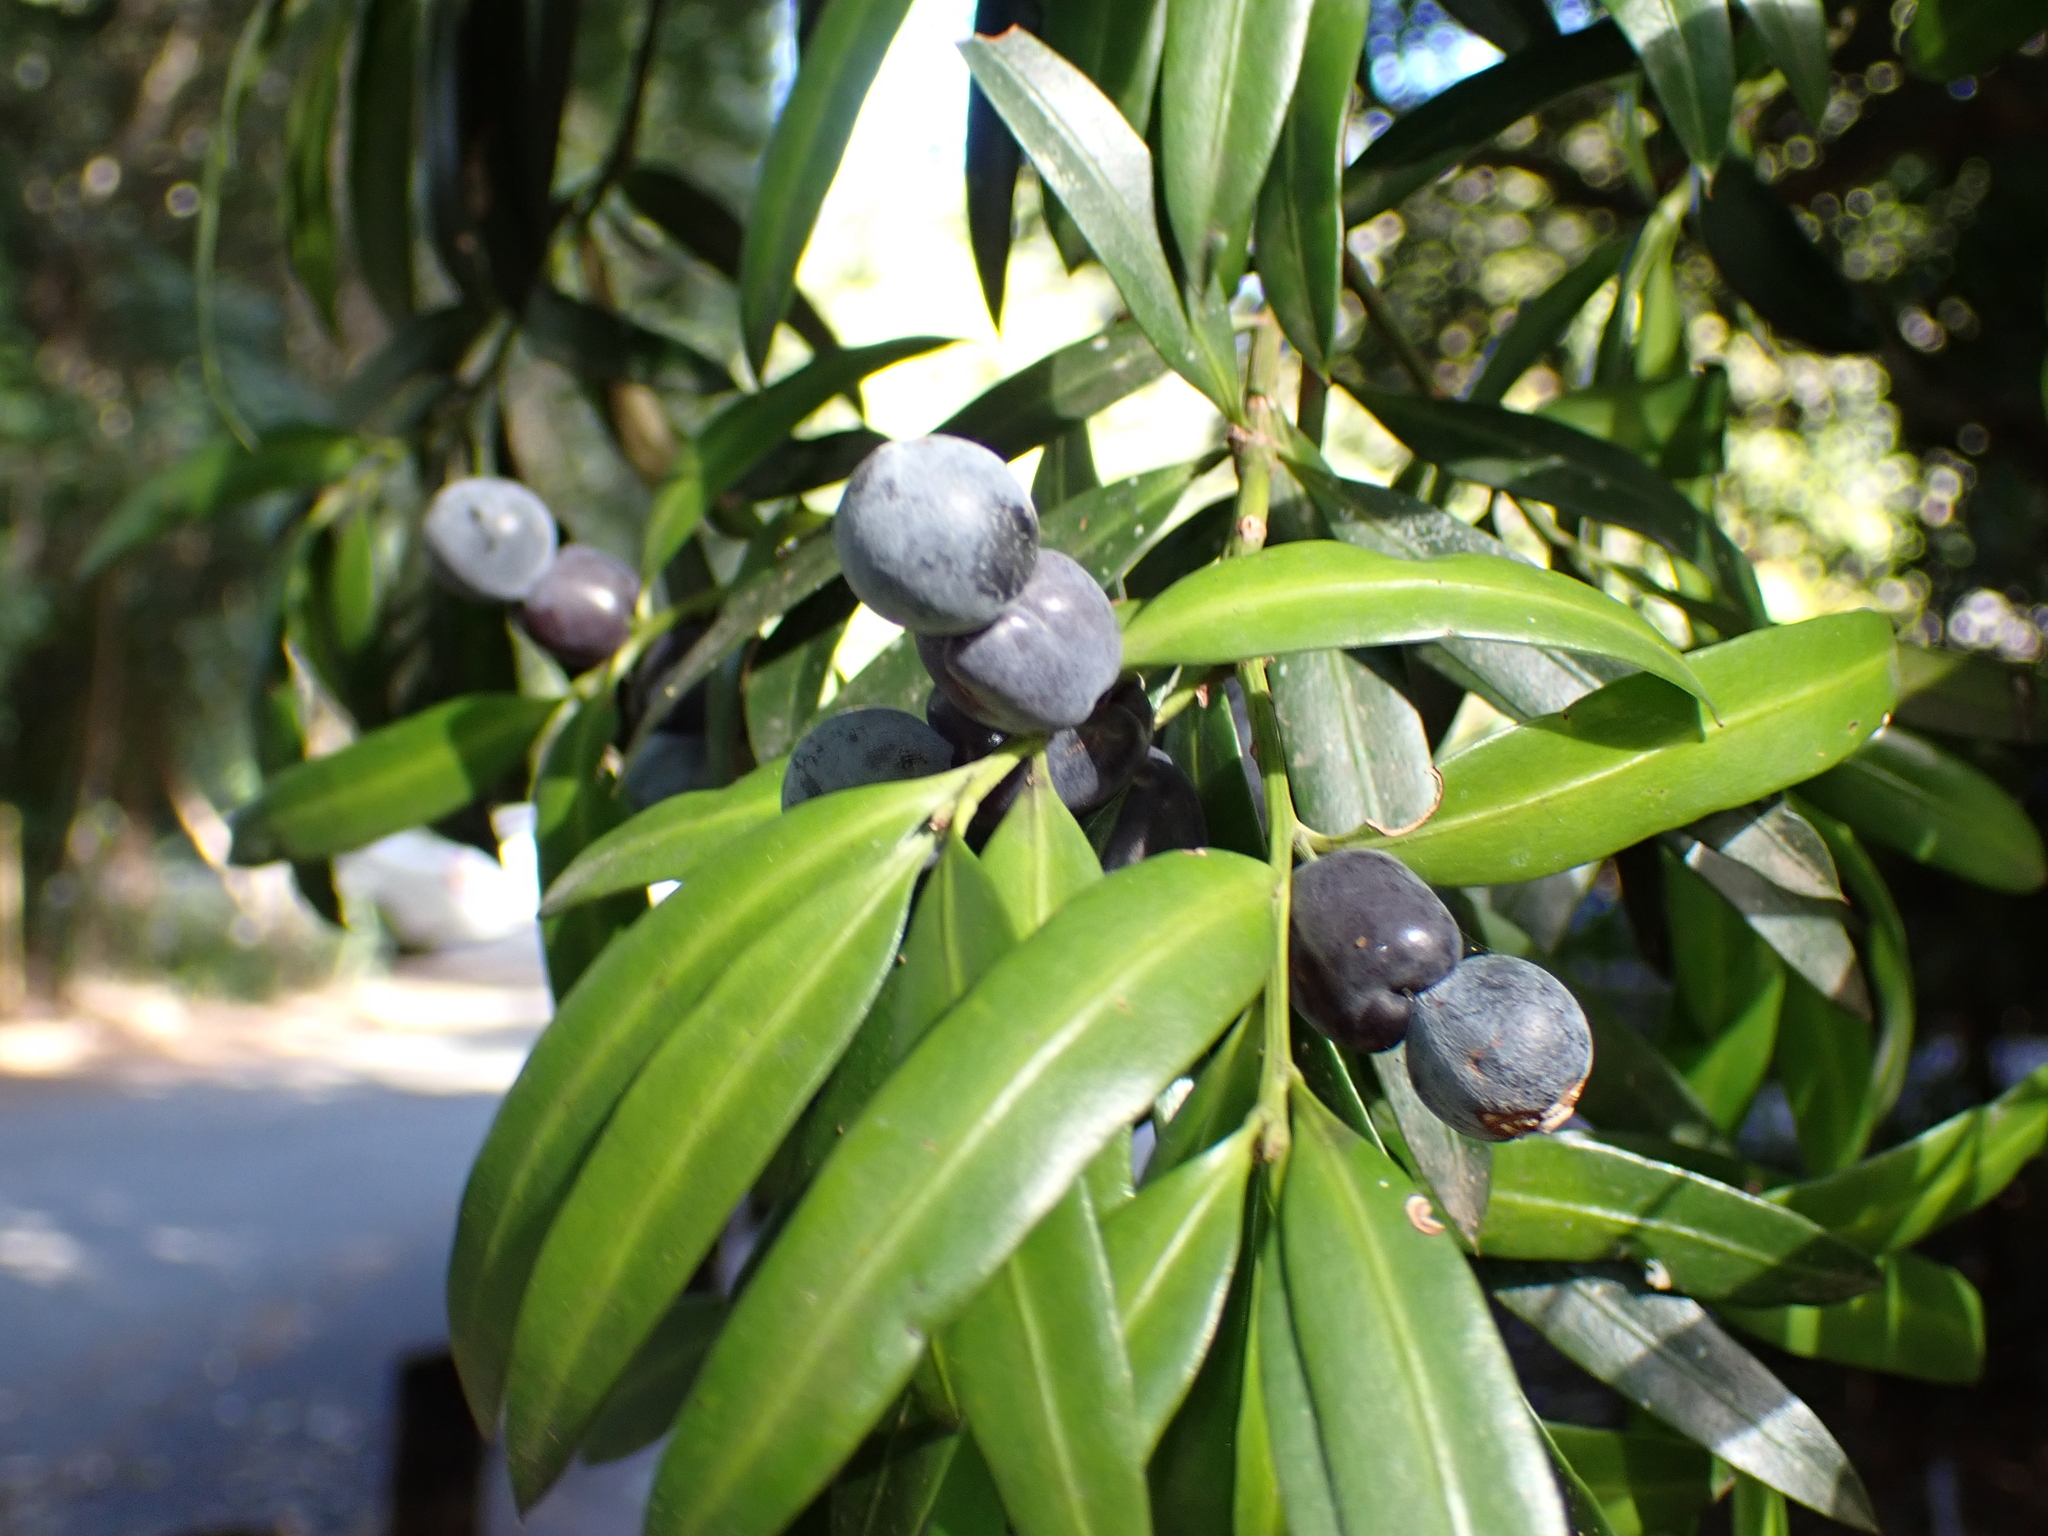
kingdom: Plantae
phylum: Tracheophyta
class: Pinopsida
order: Pinales
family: Podocarpaceae
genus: Podocarpus
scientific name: Podocarpus elatus
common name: Plum pine
